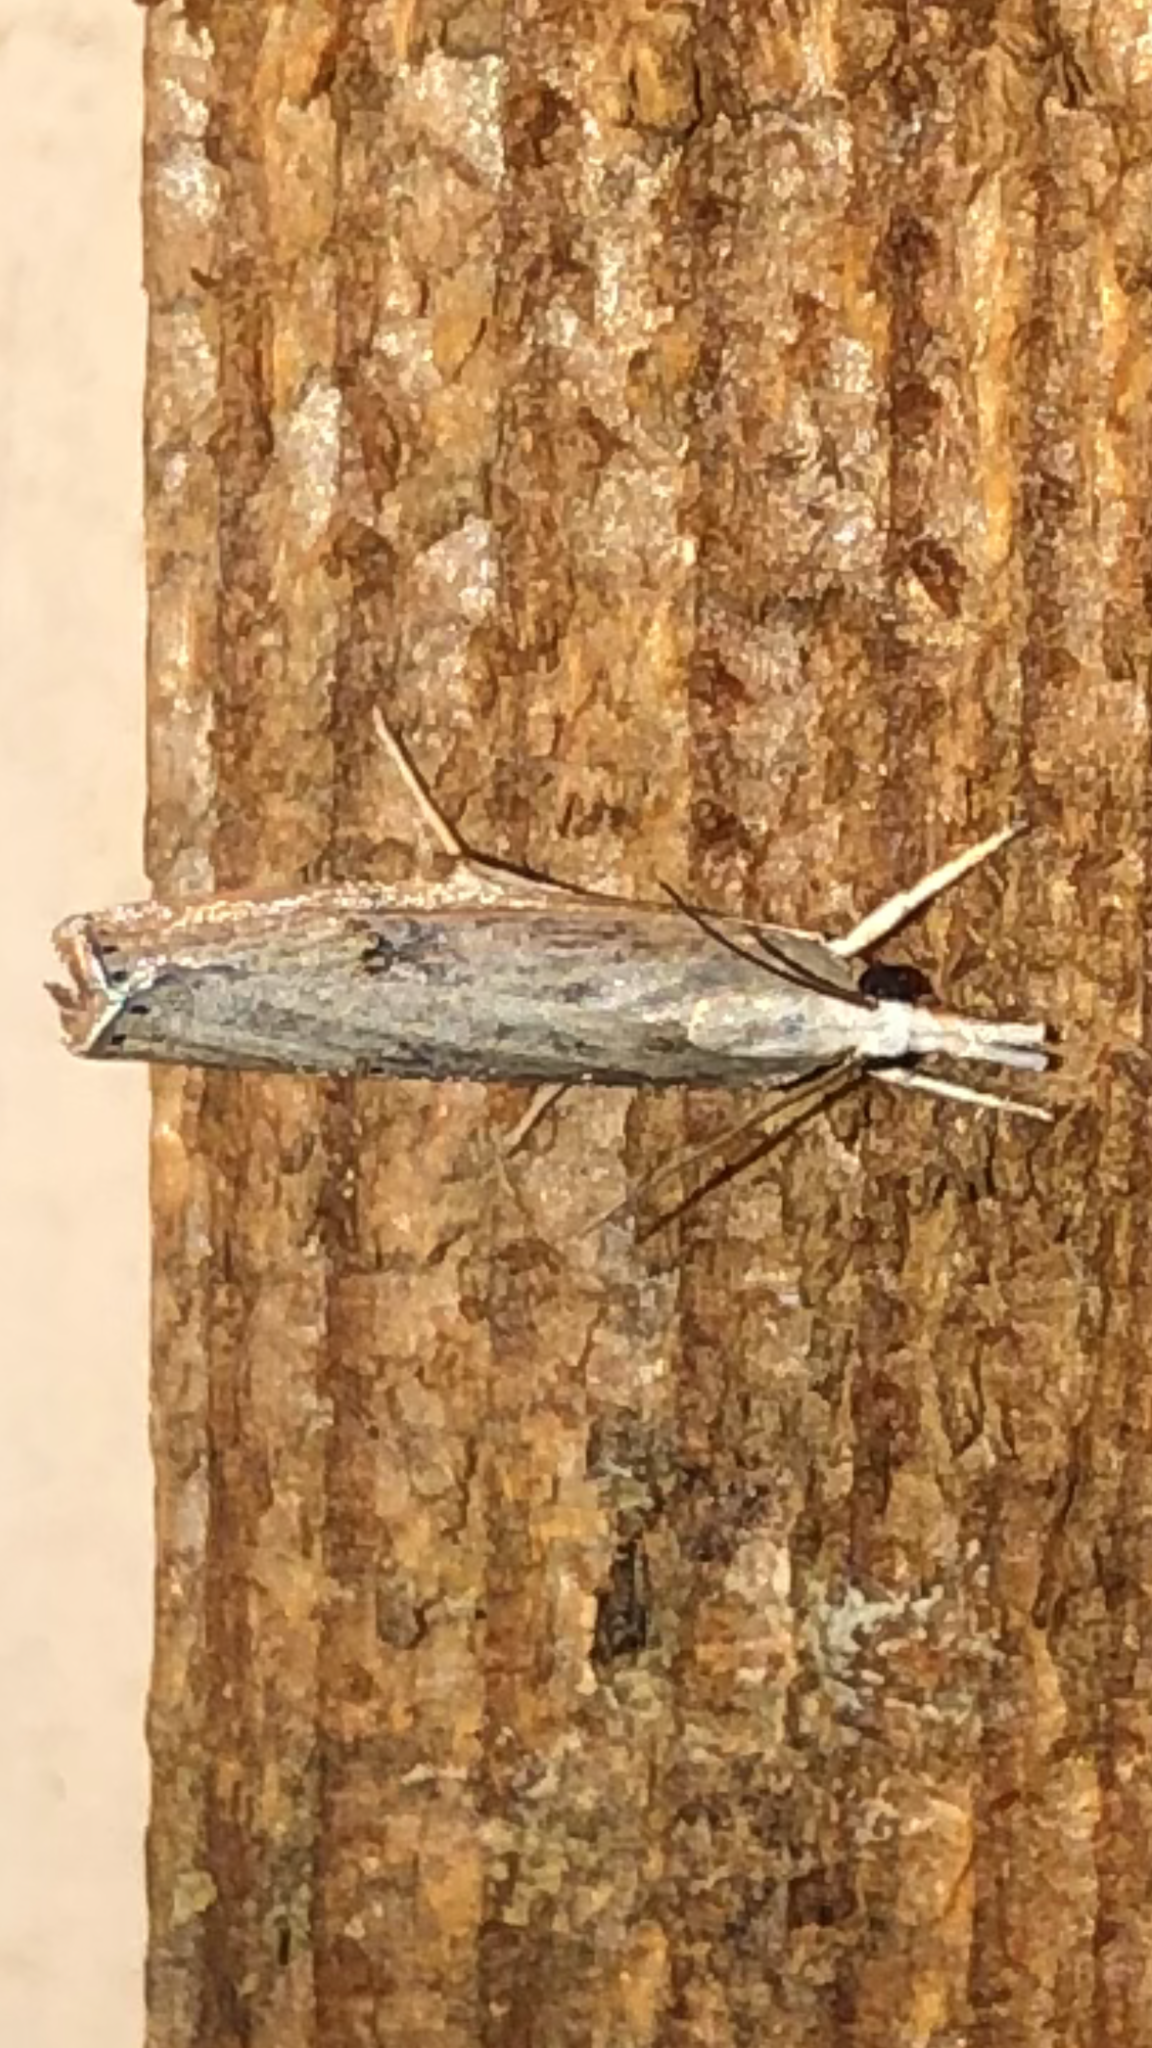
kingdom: Animalia
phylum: Arthropoda
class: Insecta
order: Lepidoptera
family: Crambidae
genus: Parapediasia
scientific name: Parapediasia teterellus
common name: Bluegrass webworm moth
